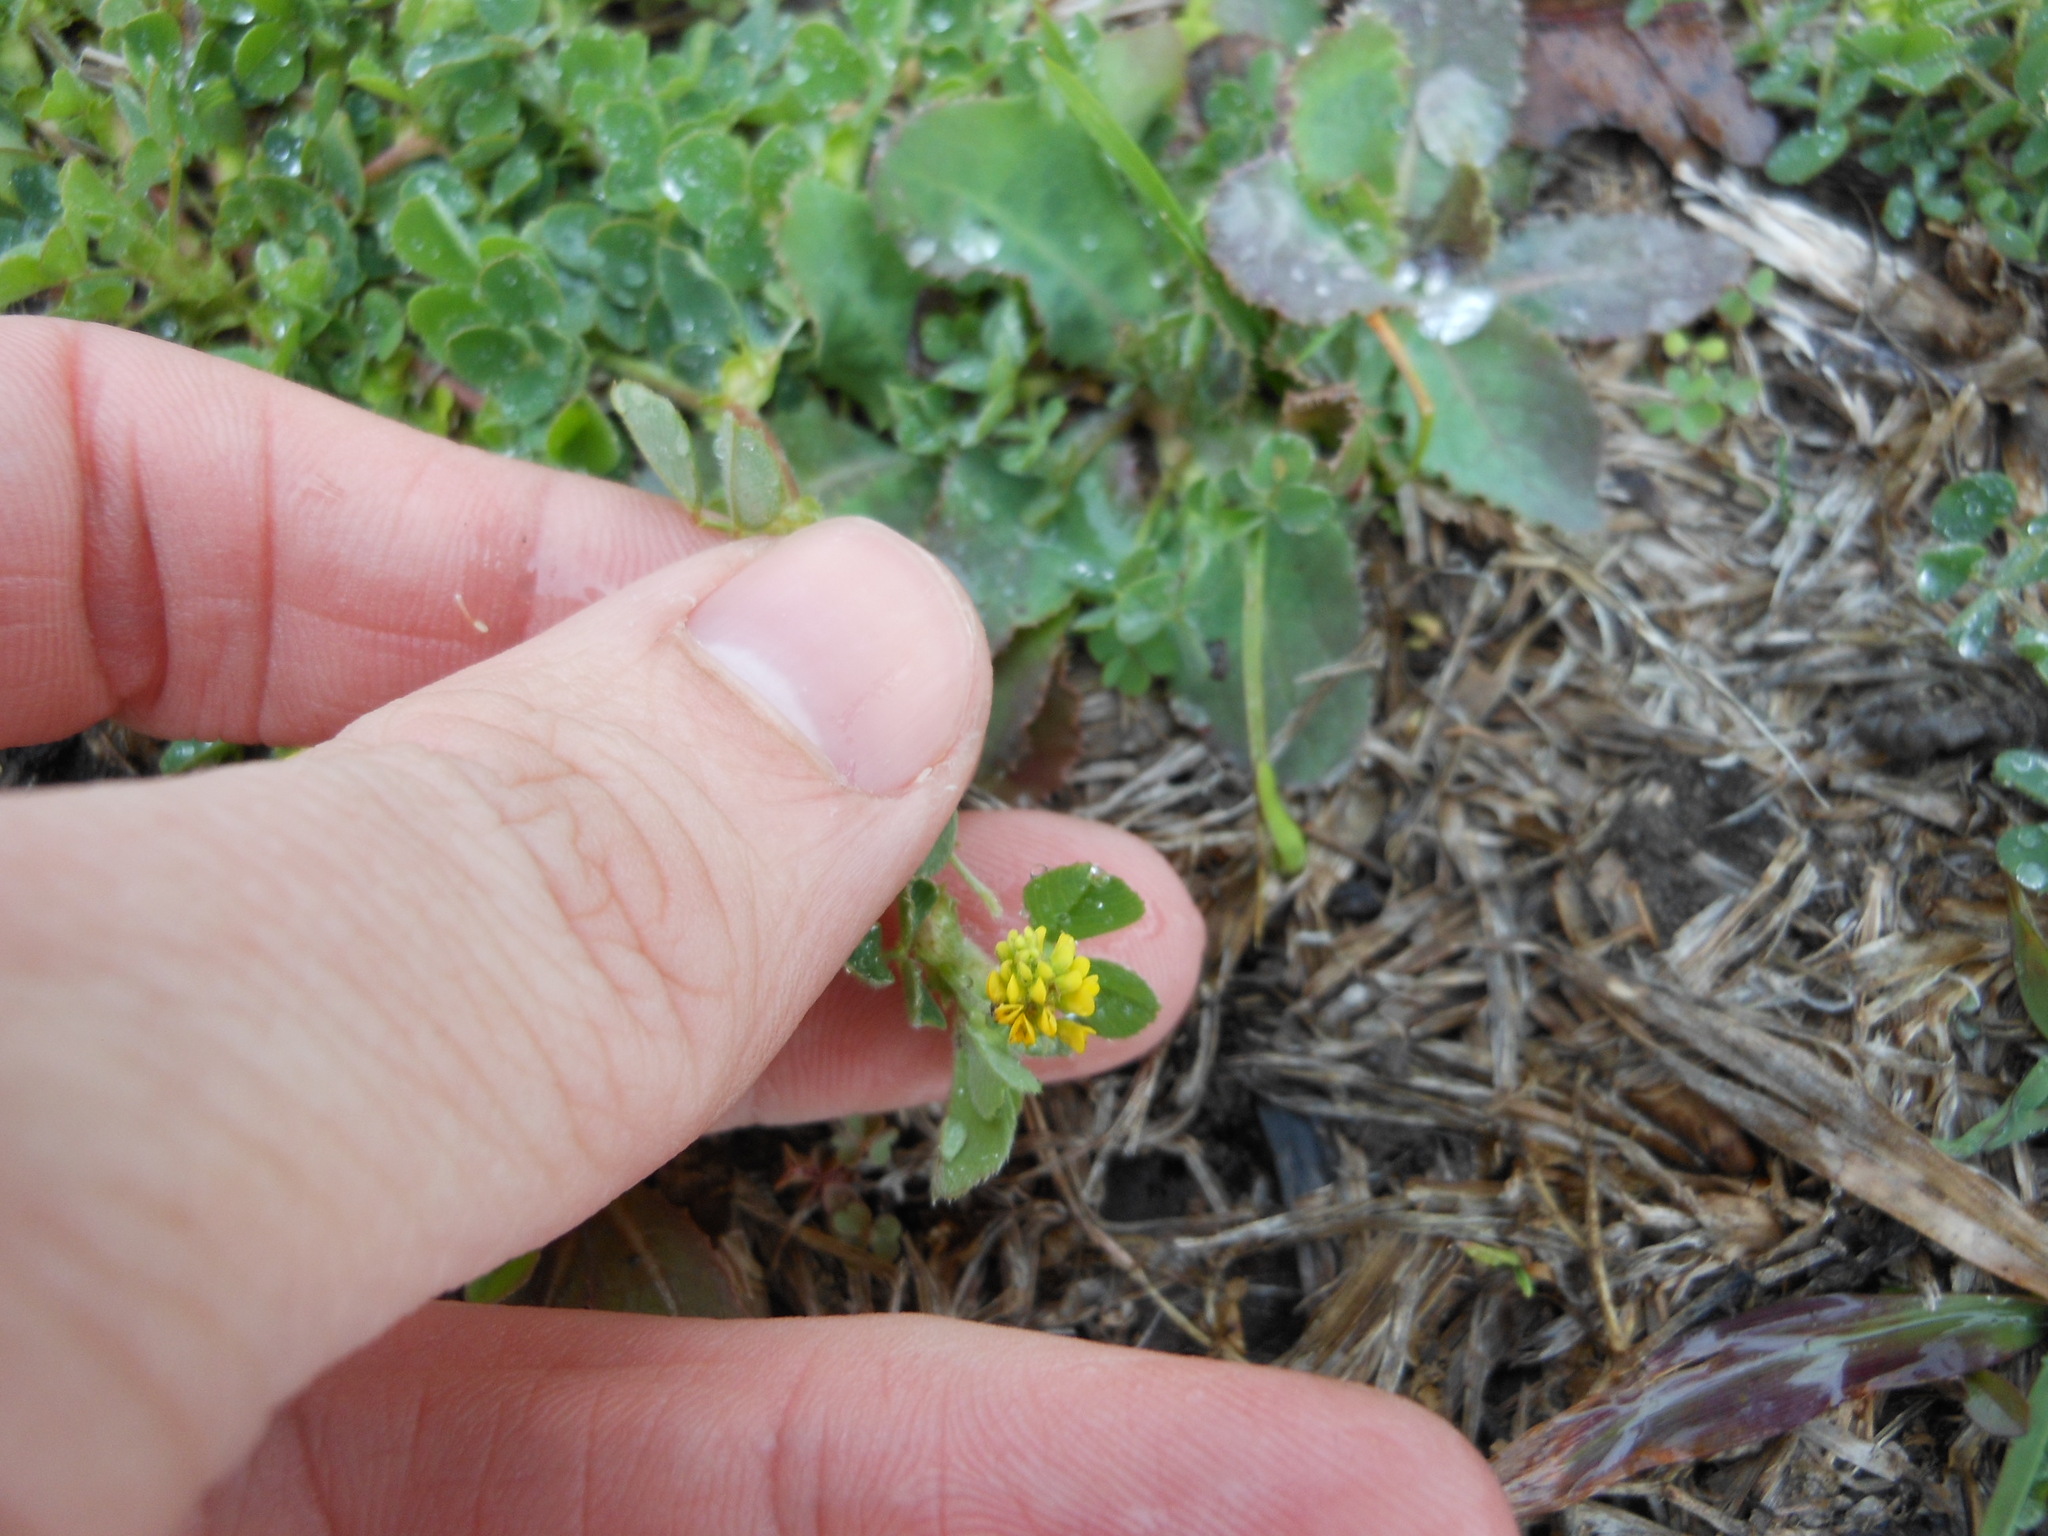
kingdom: Plantae
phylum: Tracheophyta
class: Magnoliopsida
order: Fabales
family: Fabaceae
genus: Medicago
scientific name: Medicago lupulina
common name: Black medick
